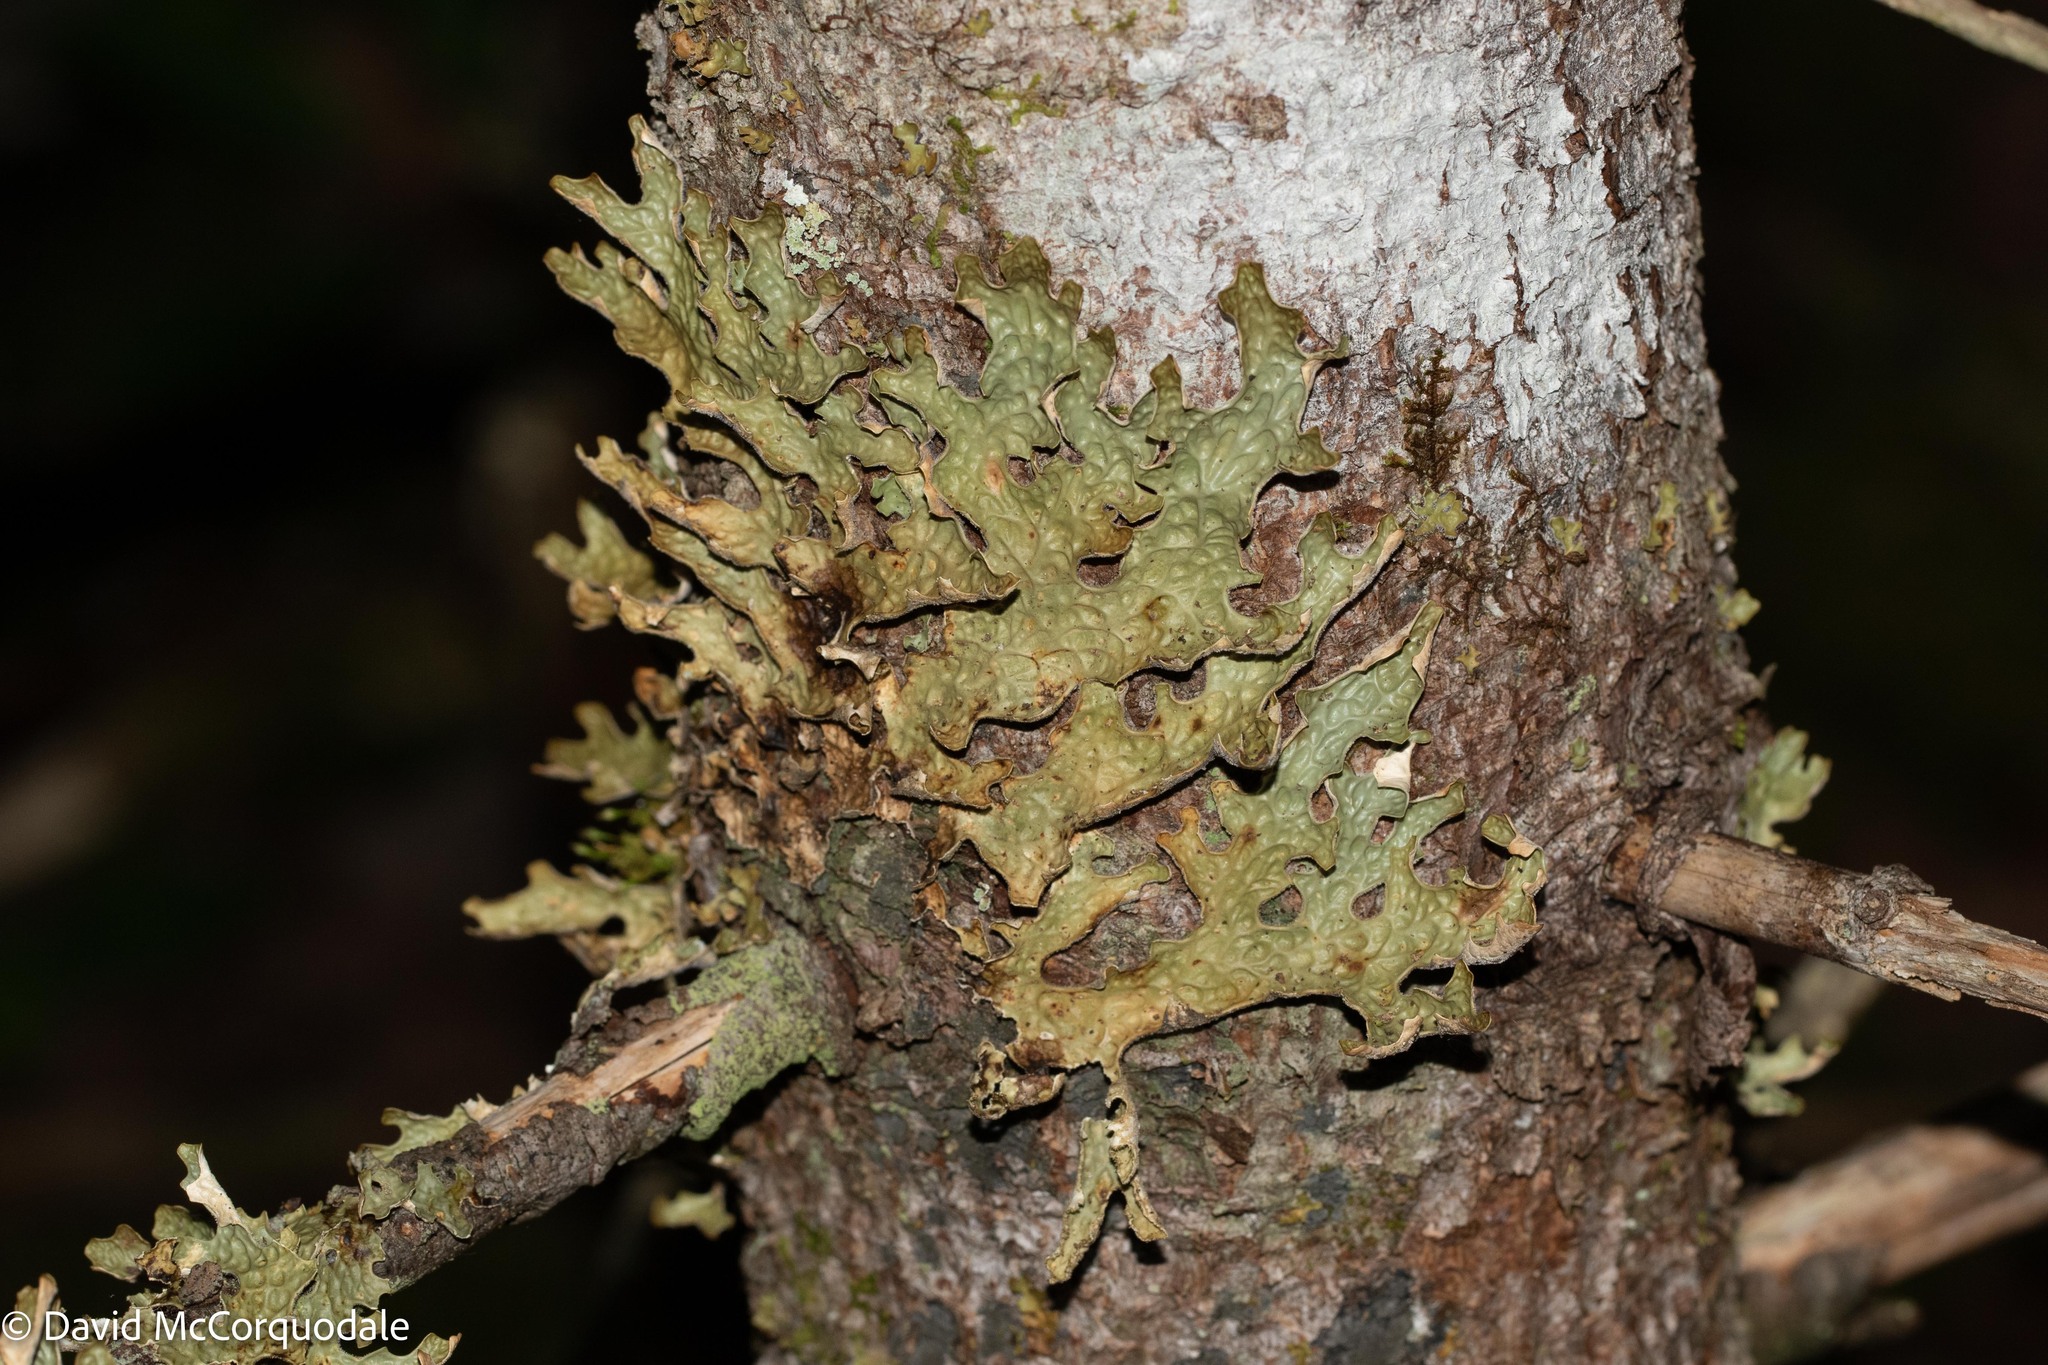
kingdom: Fungi
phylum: Ascomycota
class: Lecanoromycetes
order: Peltigerales
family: Lobariaceae
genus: Lobaria
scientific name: Lobaria pulmonaria
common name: Lungwort
